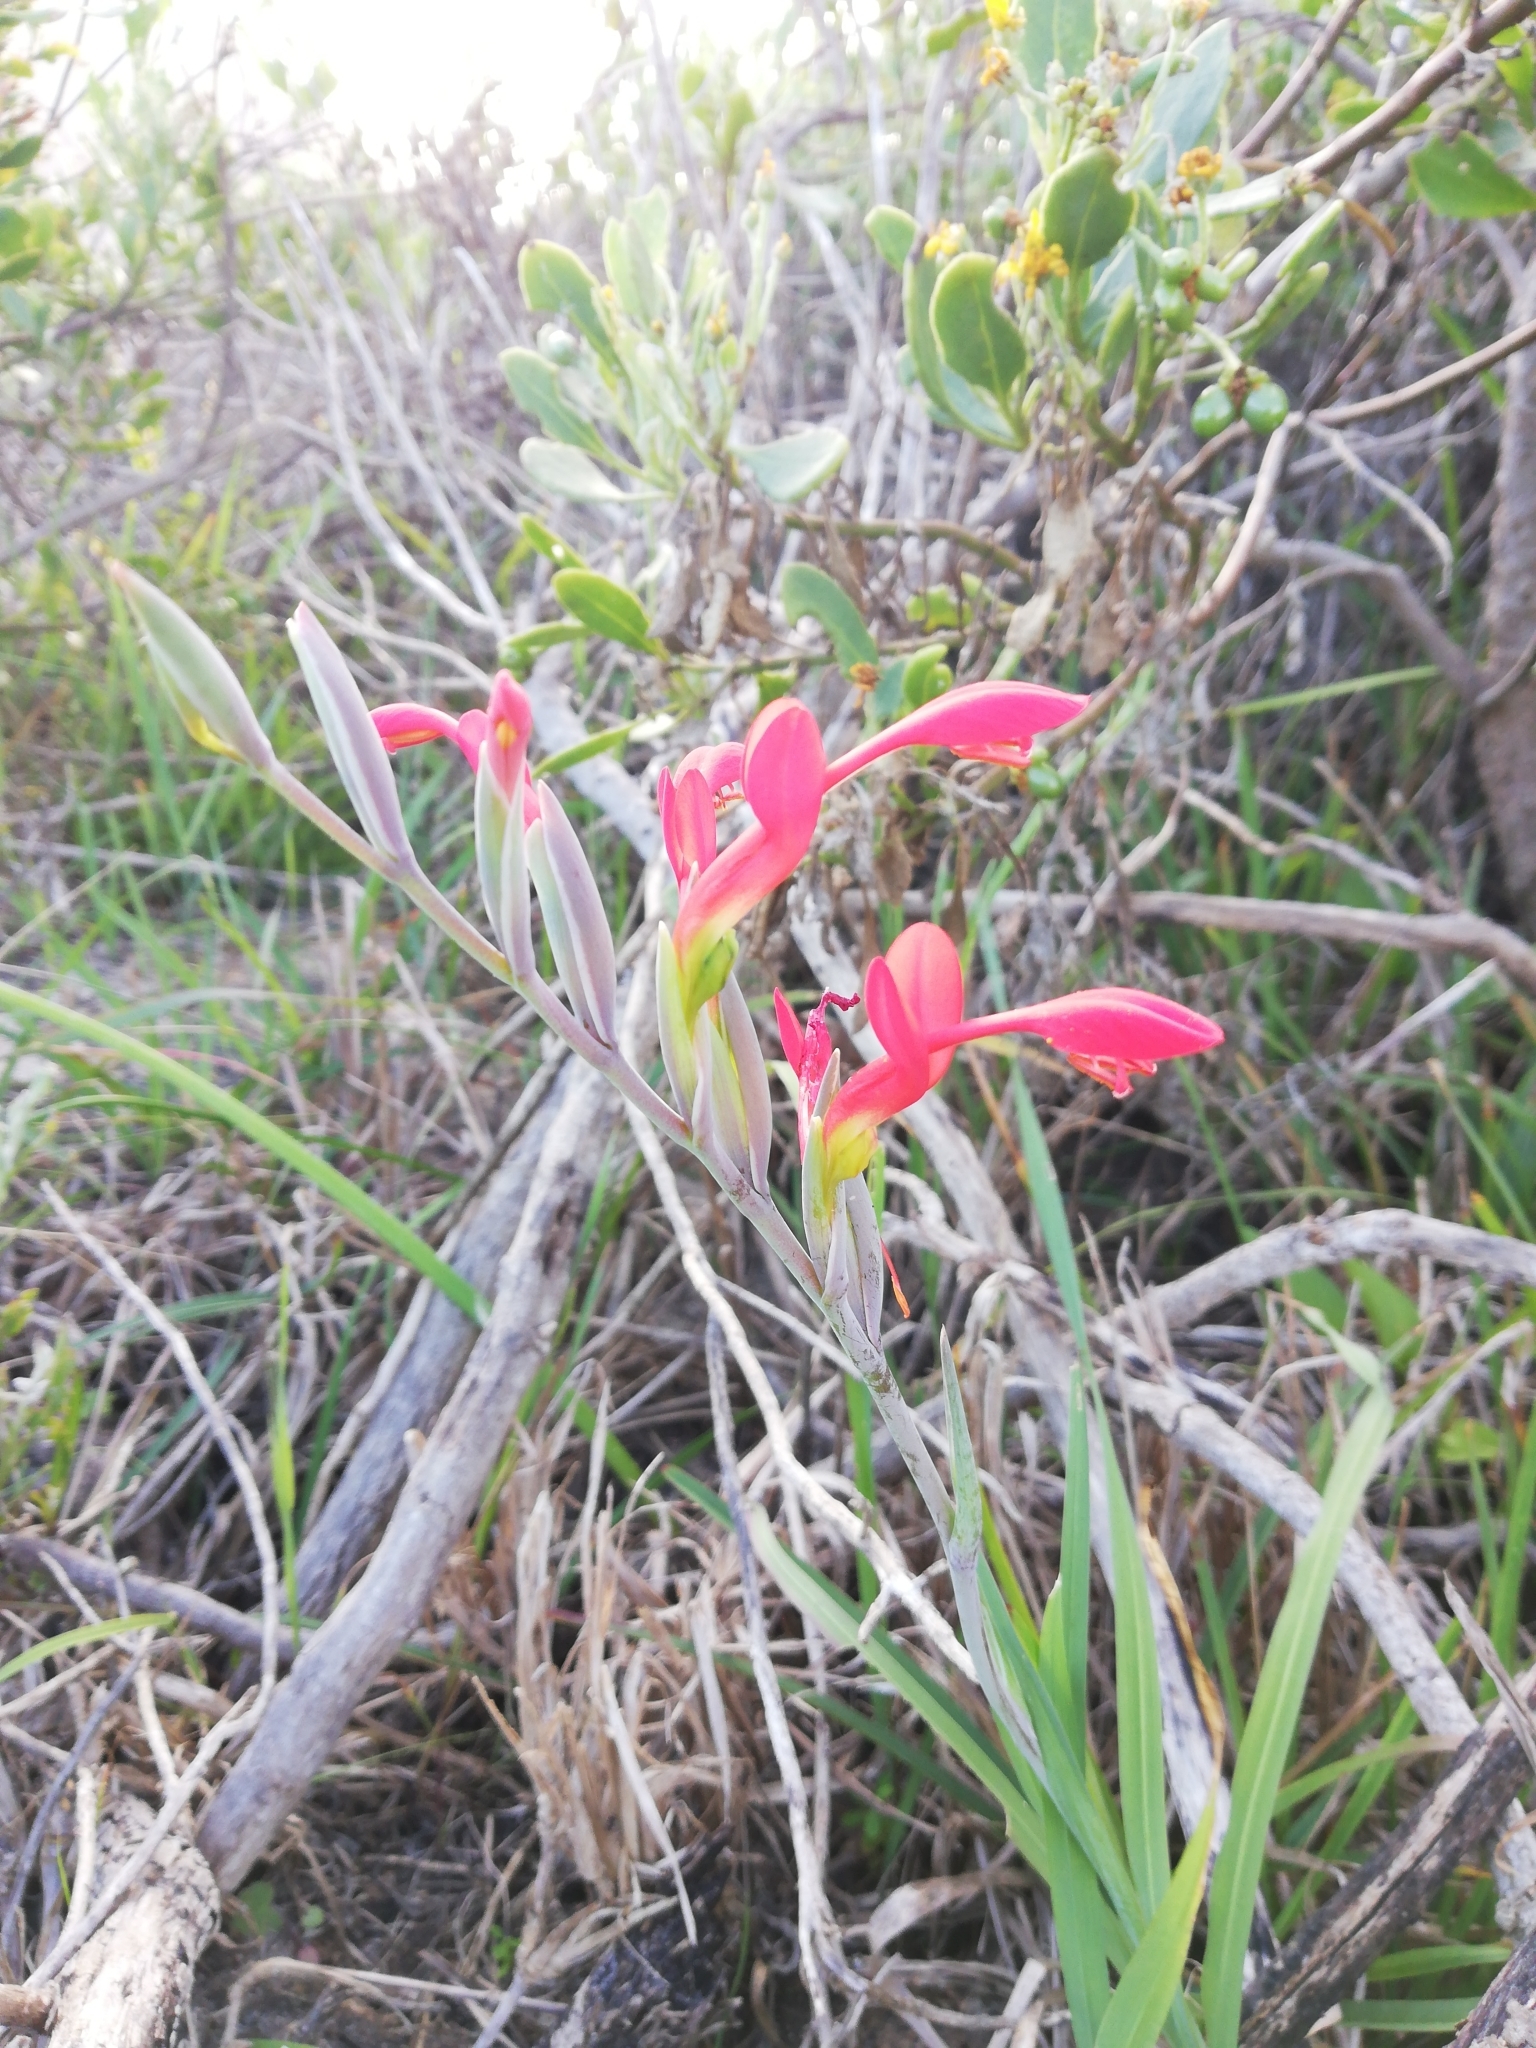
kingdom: Plantae
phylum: Tracheophyta
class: Liliopsida
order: Asparagales
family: Iridaceae
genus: Gladiolus
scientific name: Gladiolus cunonius
